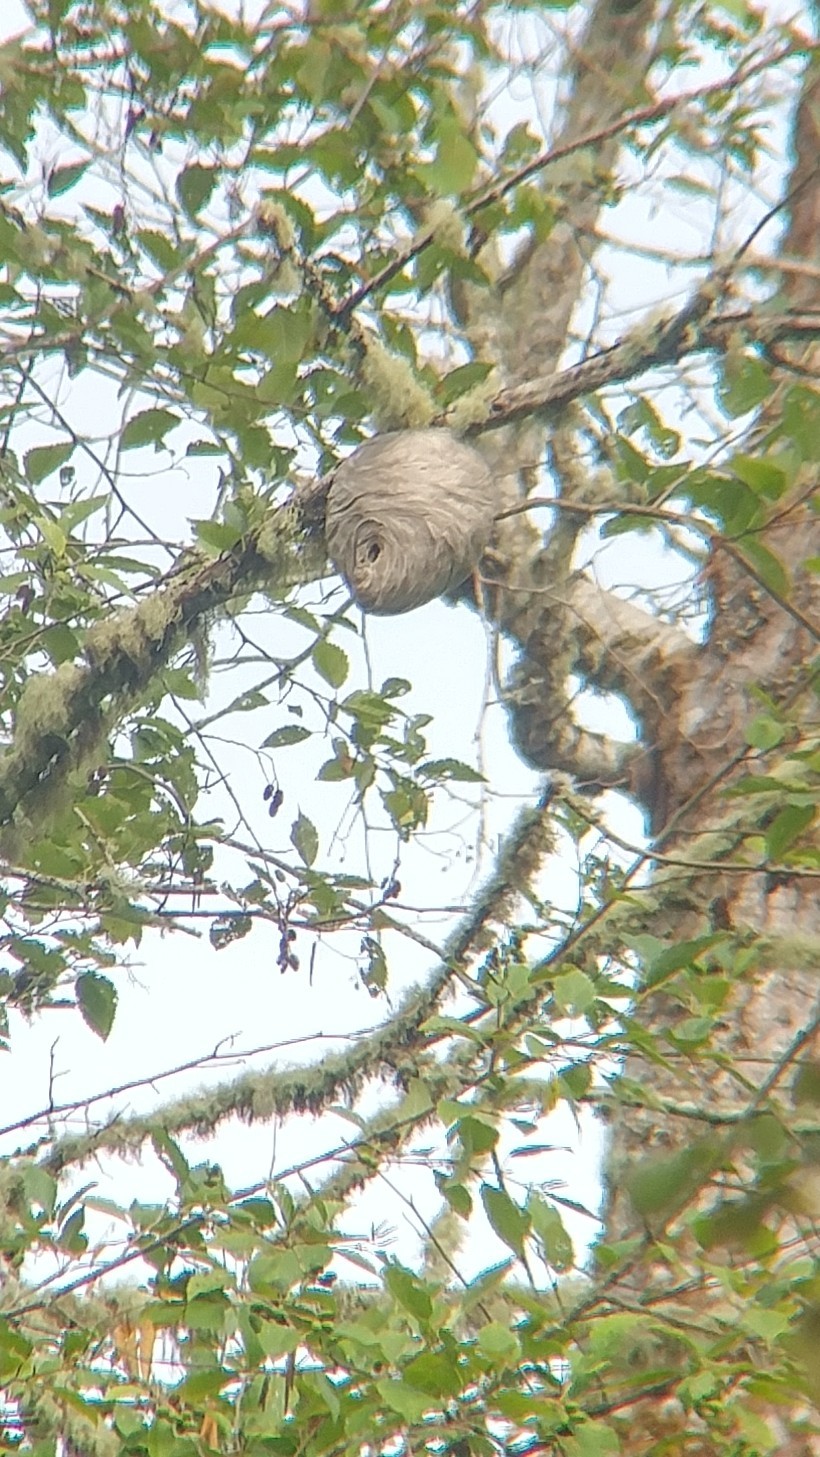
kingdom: Animalia
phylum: Arthropoda
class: Insecta
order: Hymenoptera
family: Vespidae
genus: Dolichovespula
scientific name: Dolichovespula
